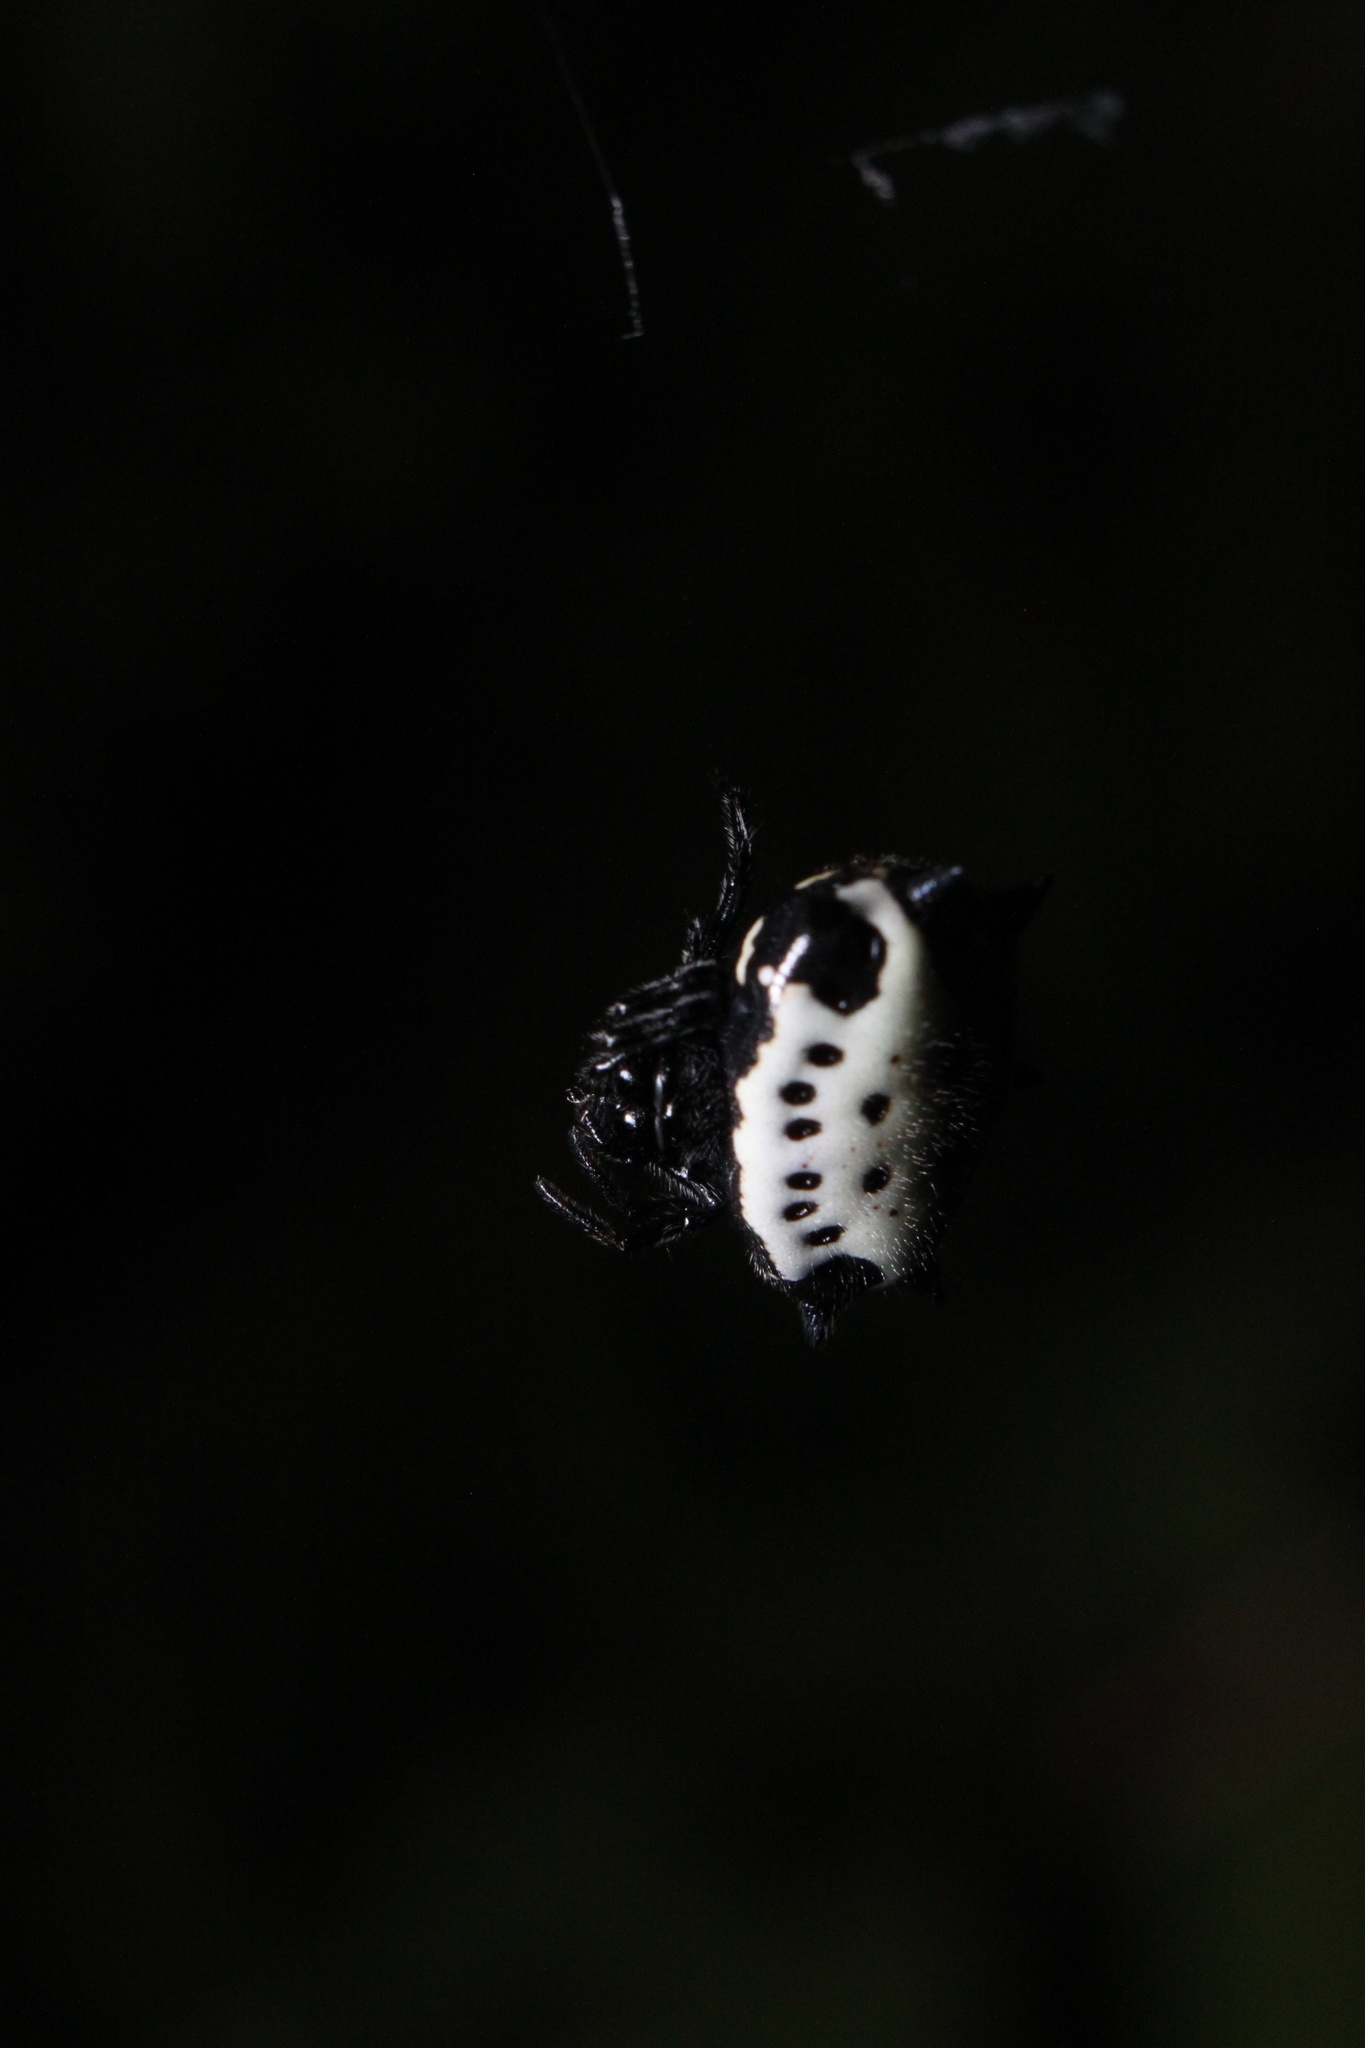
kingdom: Animalia
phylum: Arthropoda
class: Arachnida
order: Araneae
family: Araneidae
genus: Gasteracantha
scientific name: Gasteracantha cancriformis
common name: Orb weavers
